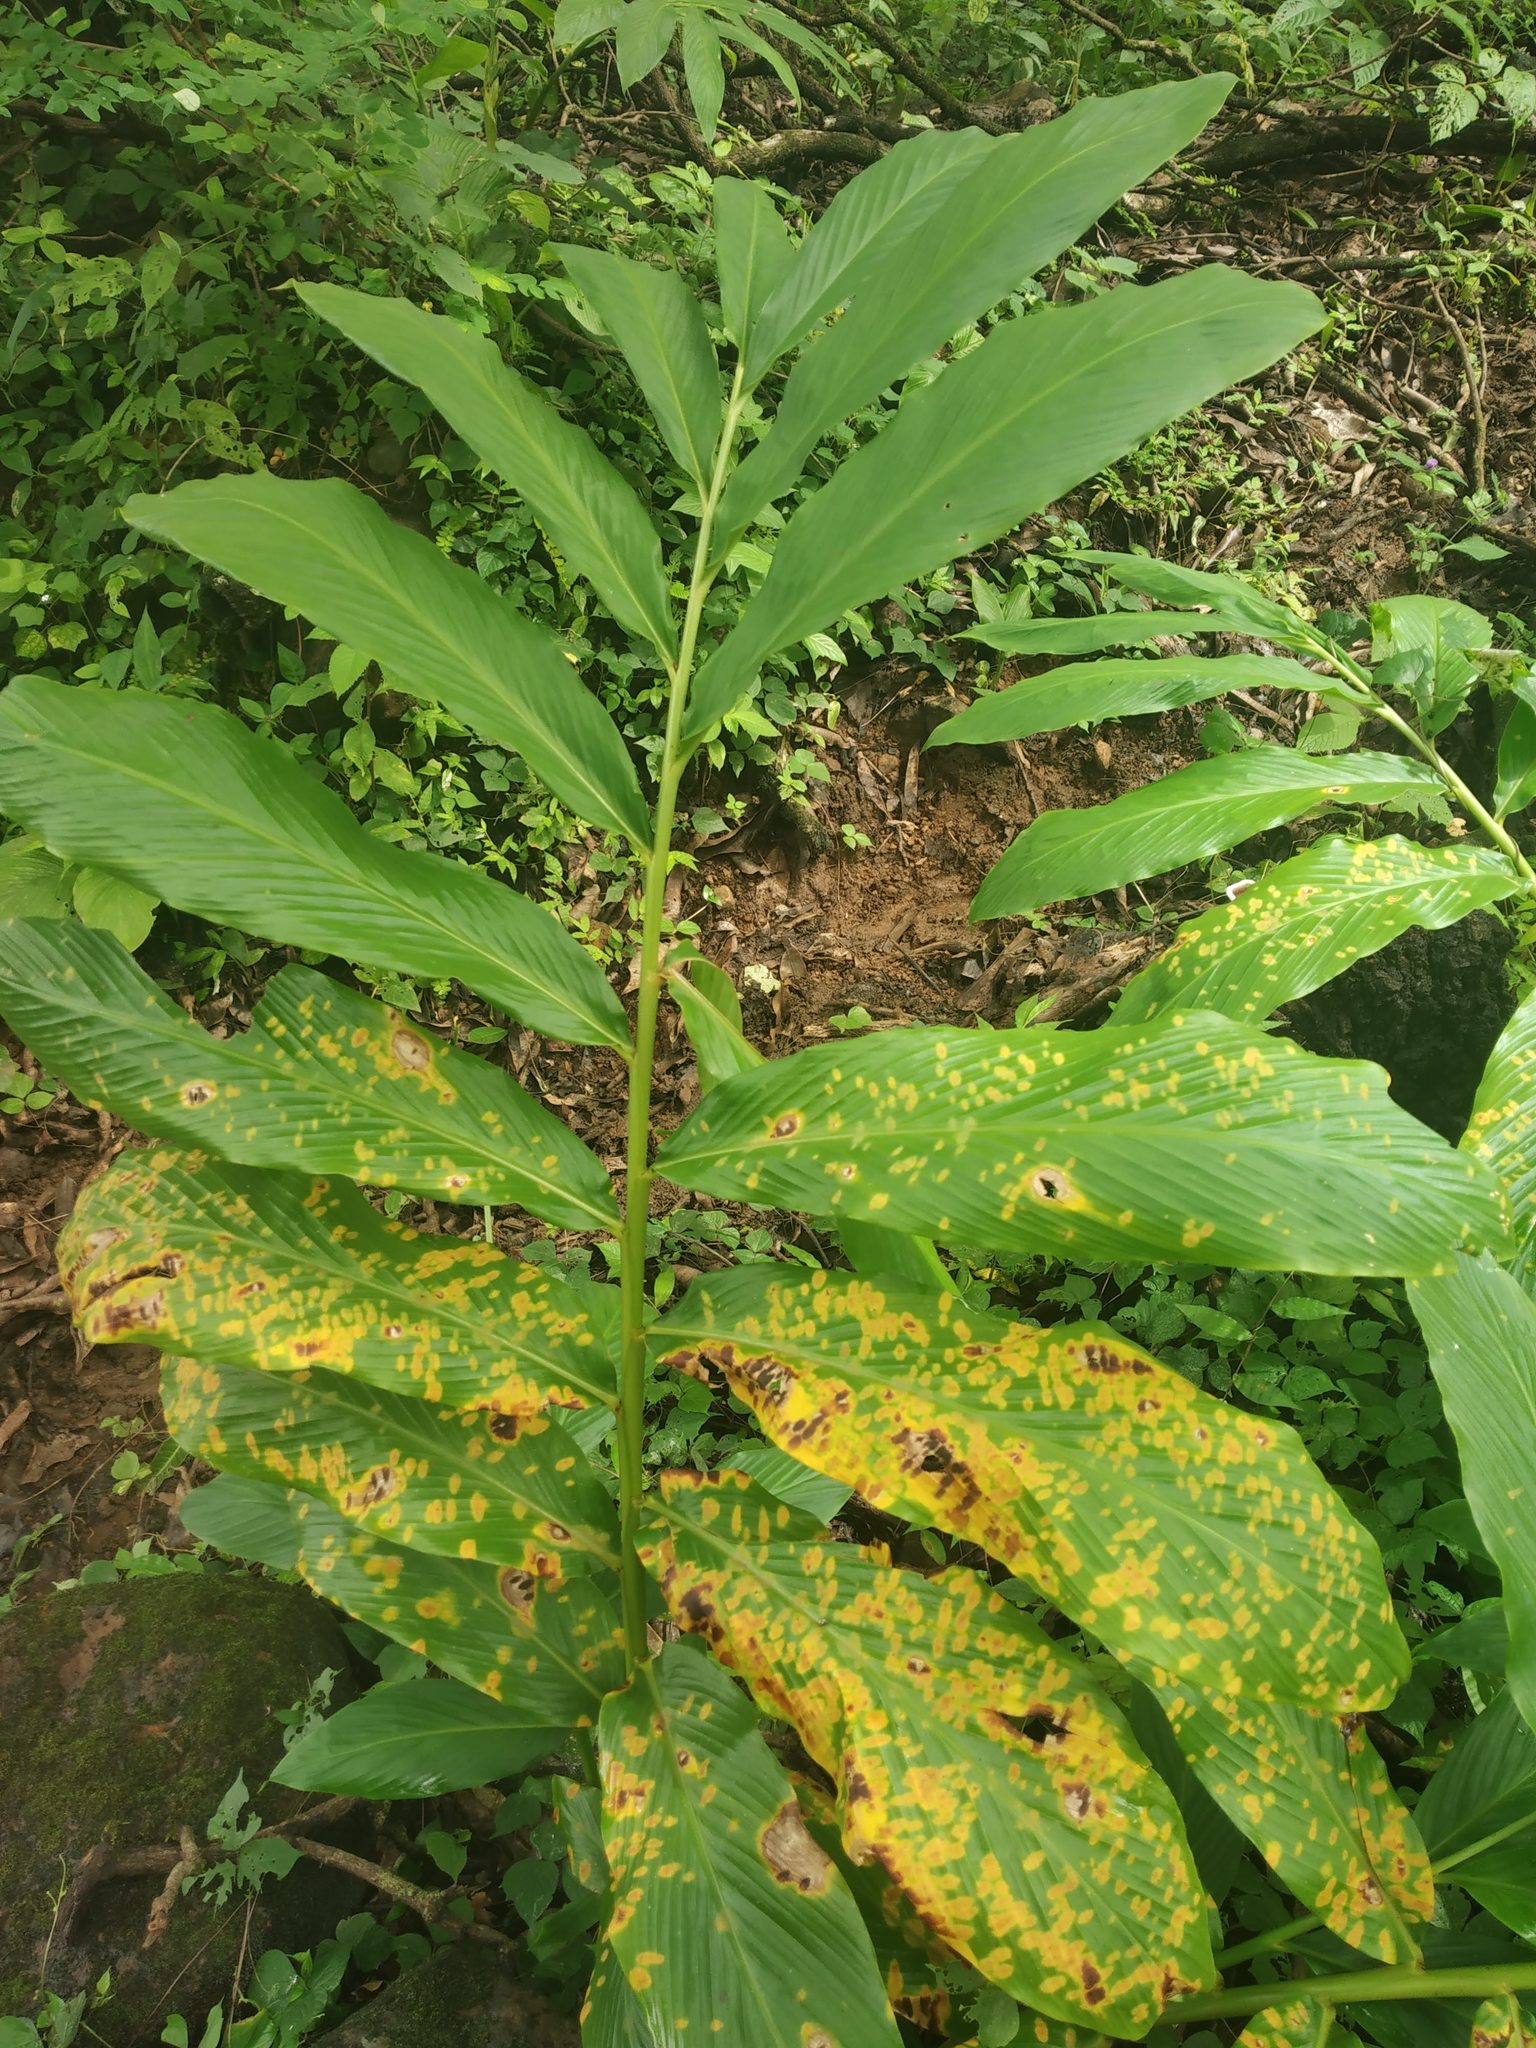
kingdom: Plantae
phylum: Tracheophyta
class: Liliopsida
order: Zingiberales
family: Zingiberaceae
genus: Zingiber
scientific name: Zingiber nimmonii
